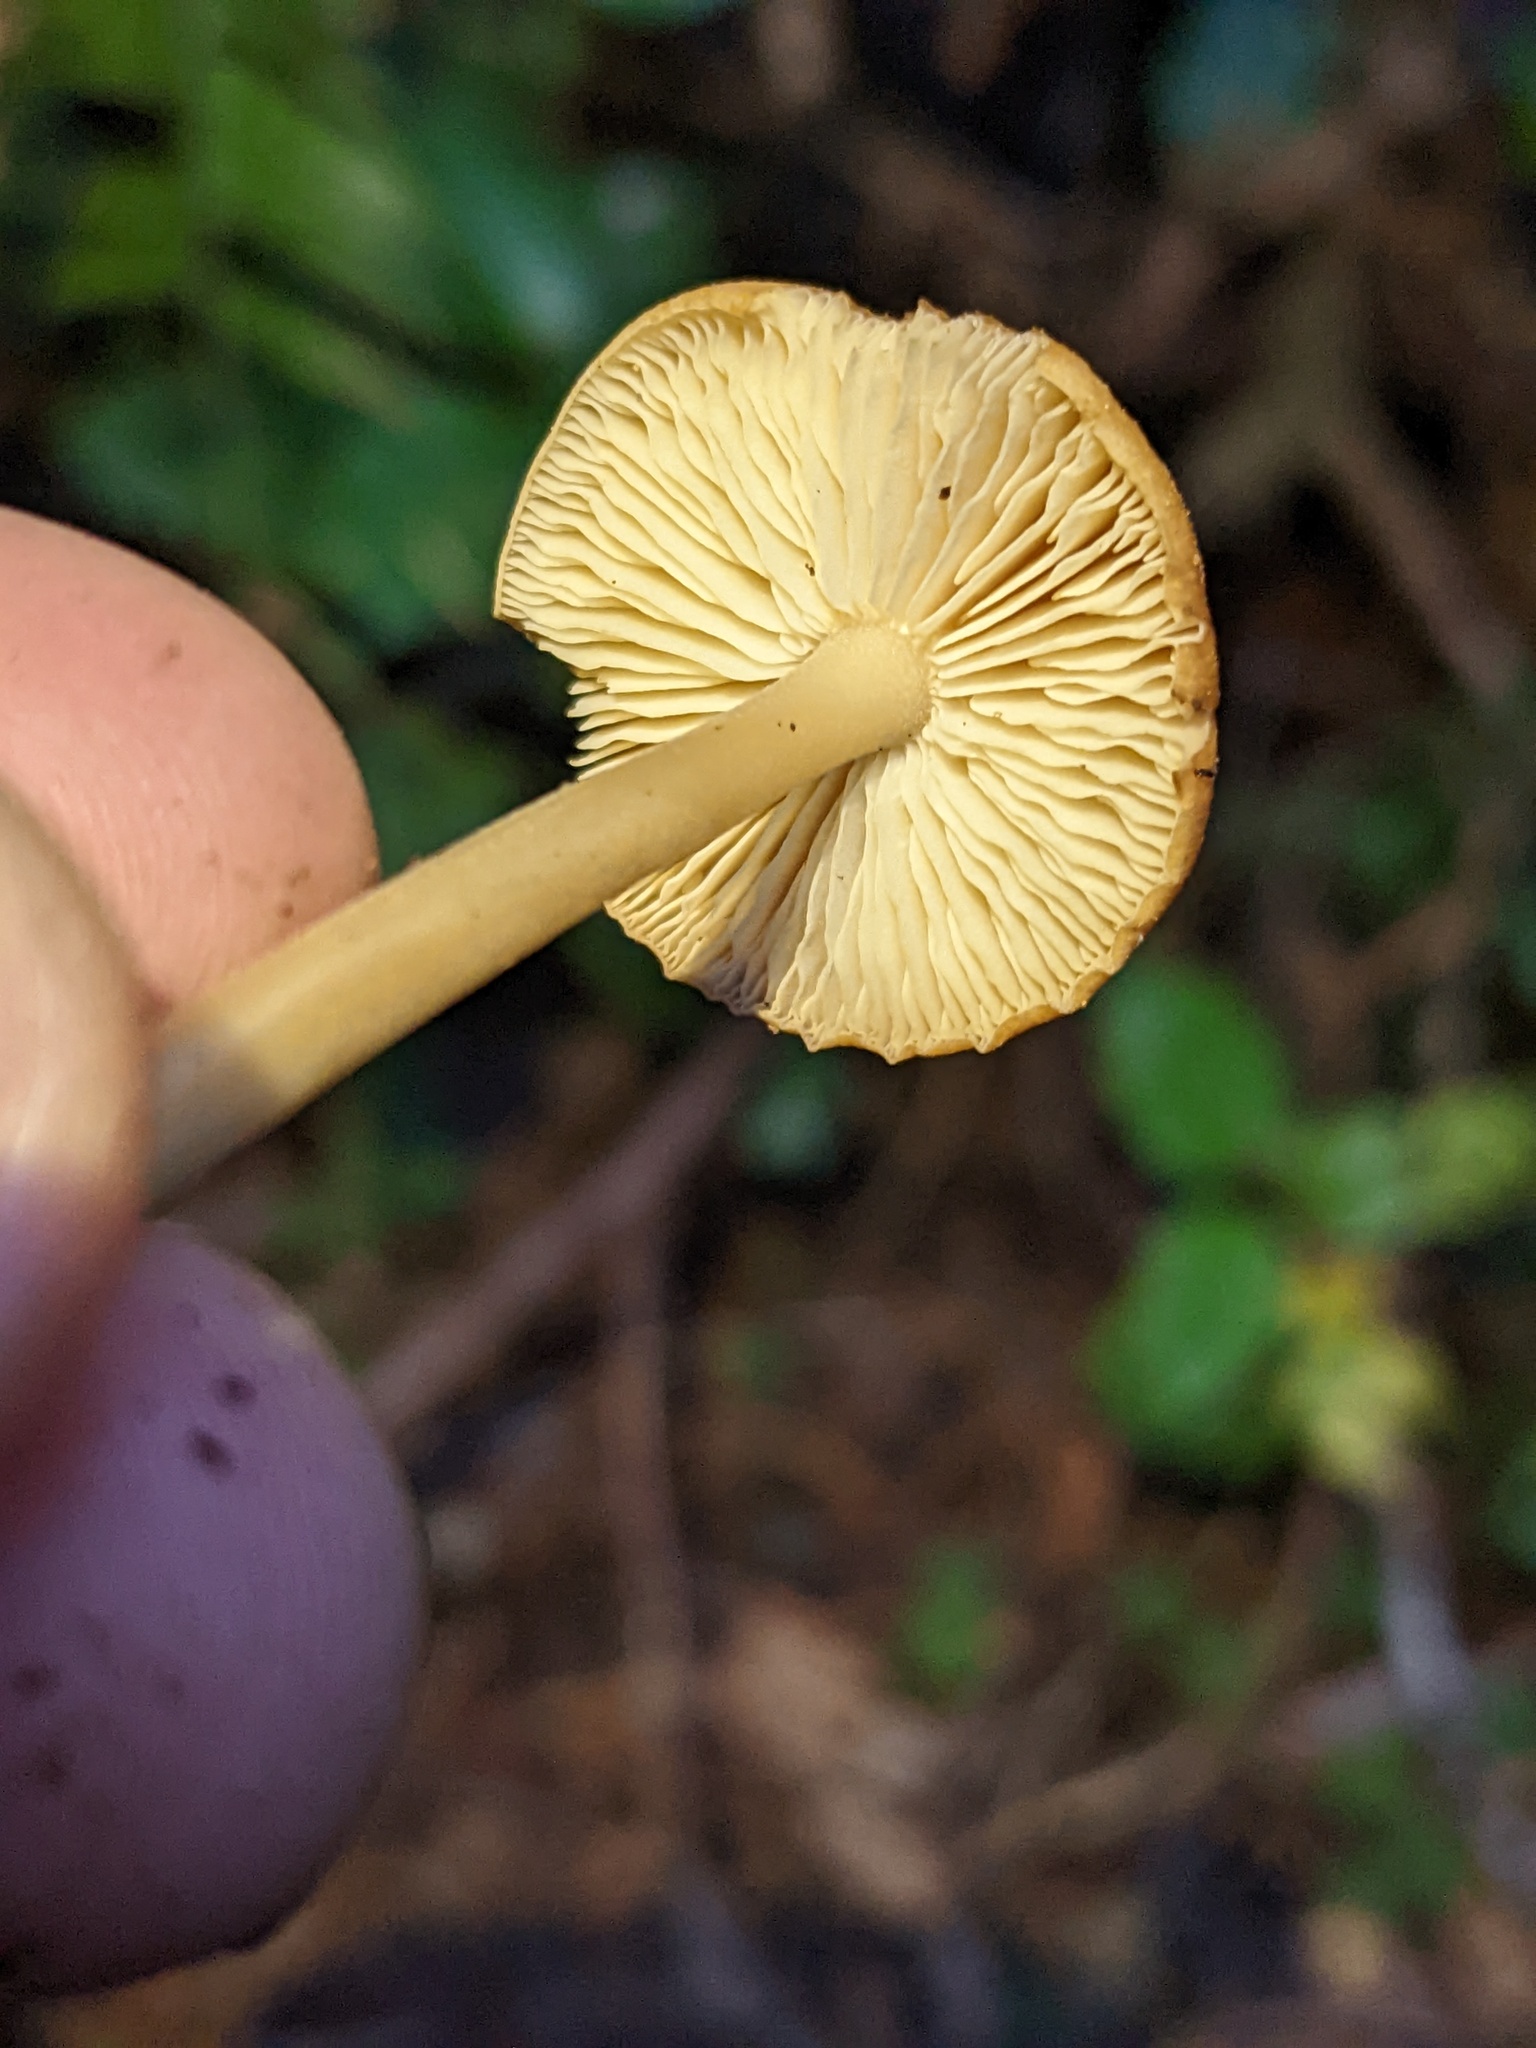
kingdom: Fungi
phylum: Basidiomycota
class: Agaricomycetes
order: Agaricales
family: Tricholomataceae
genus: Caulorhiza
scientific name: Caulorhiza umbonata
